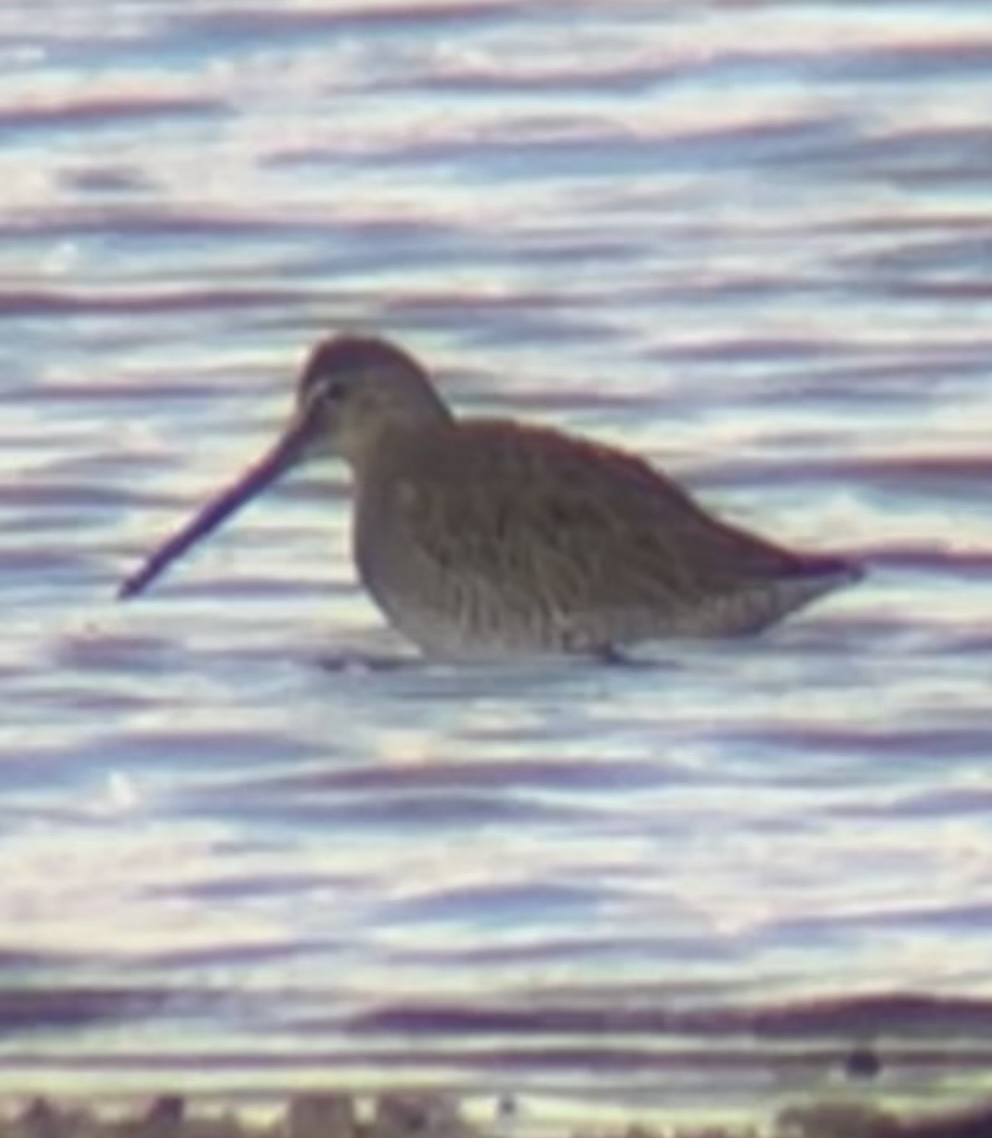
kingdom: Animalia
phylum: Chordata
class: Aves
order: Charadriiformes
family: Scolopacidae
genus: Limnodromus
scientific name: Limnodromus scolopaceus
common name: Long-billed dowitcher
